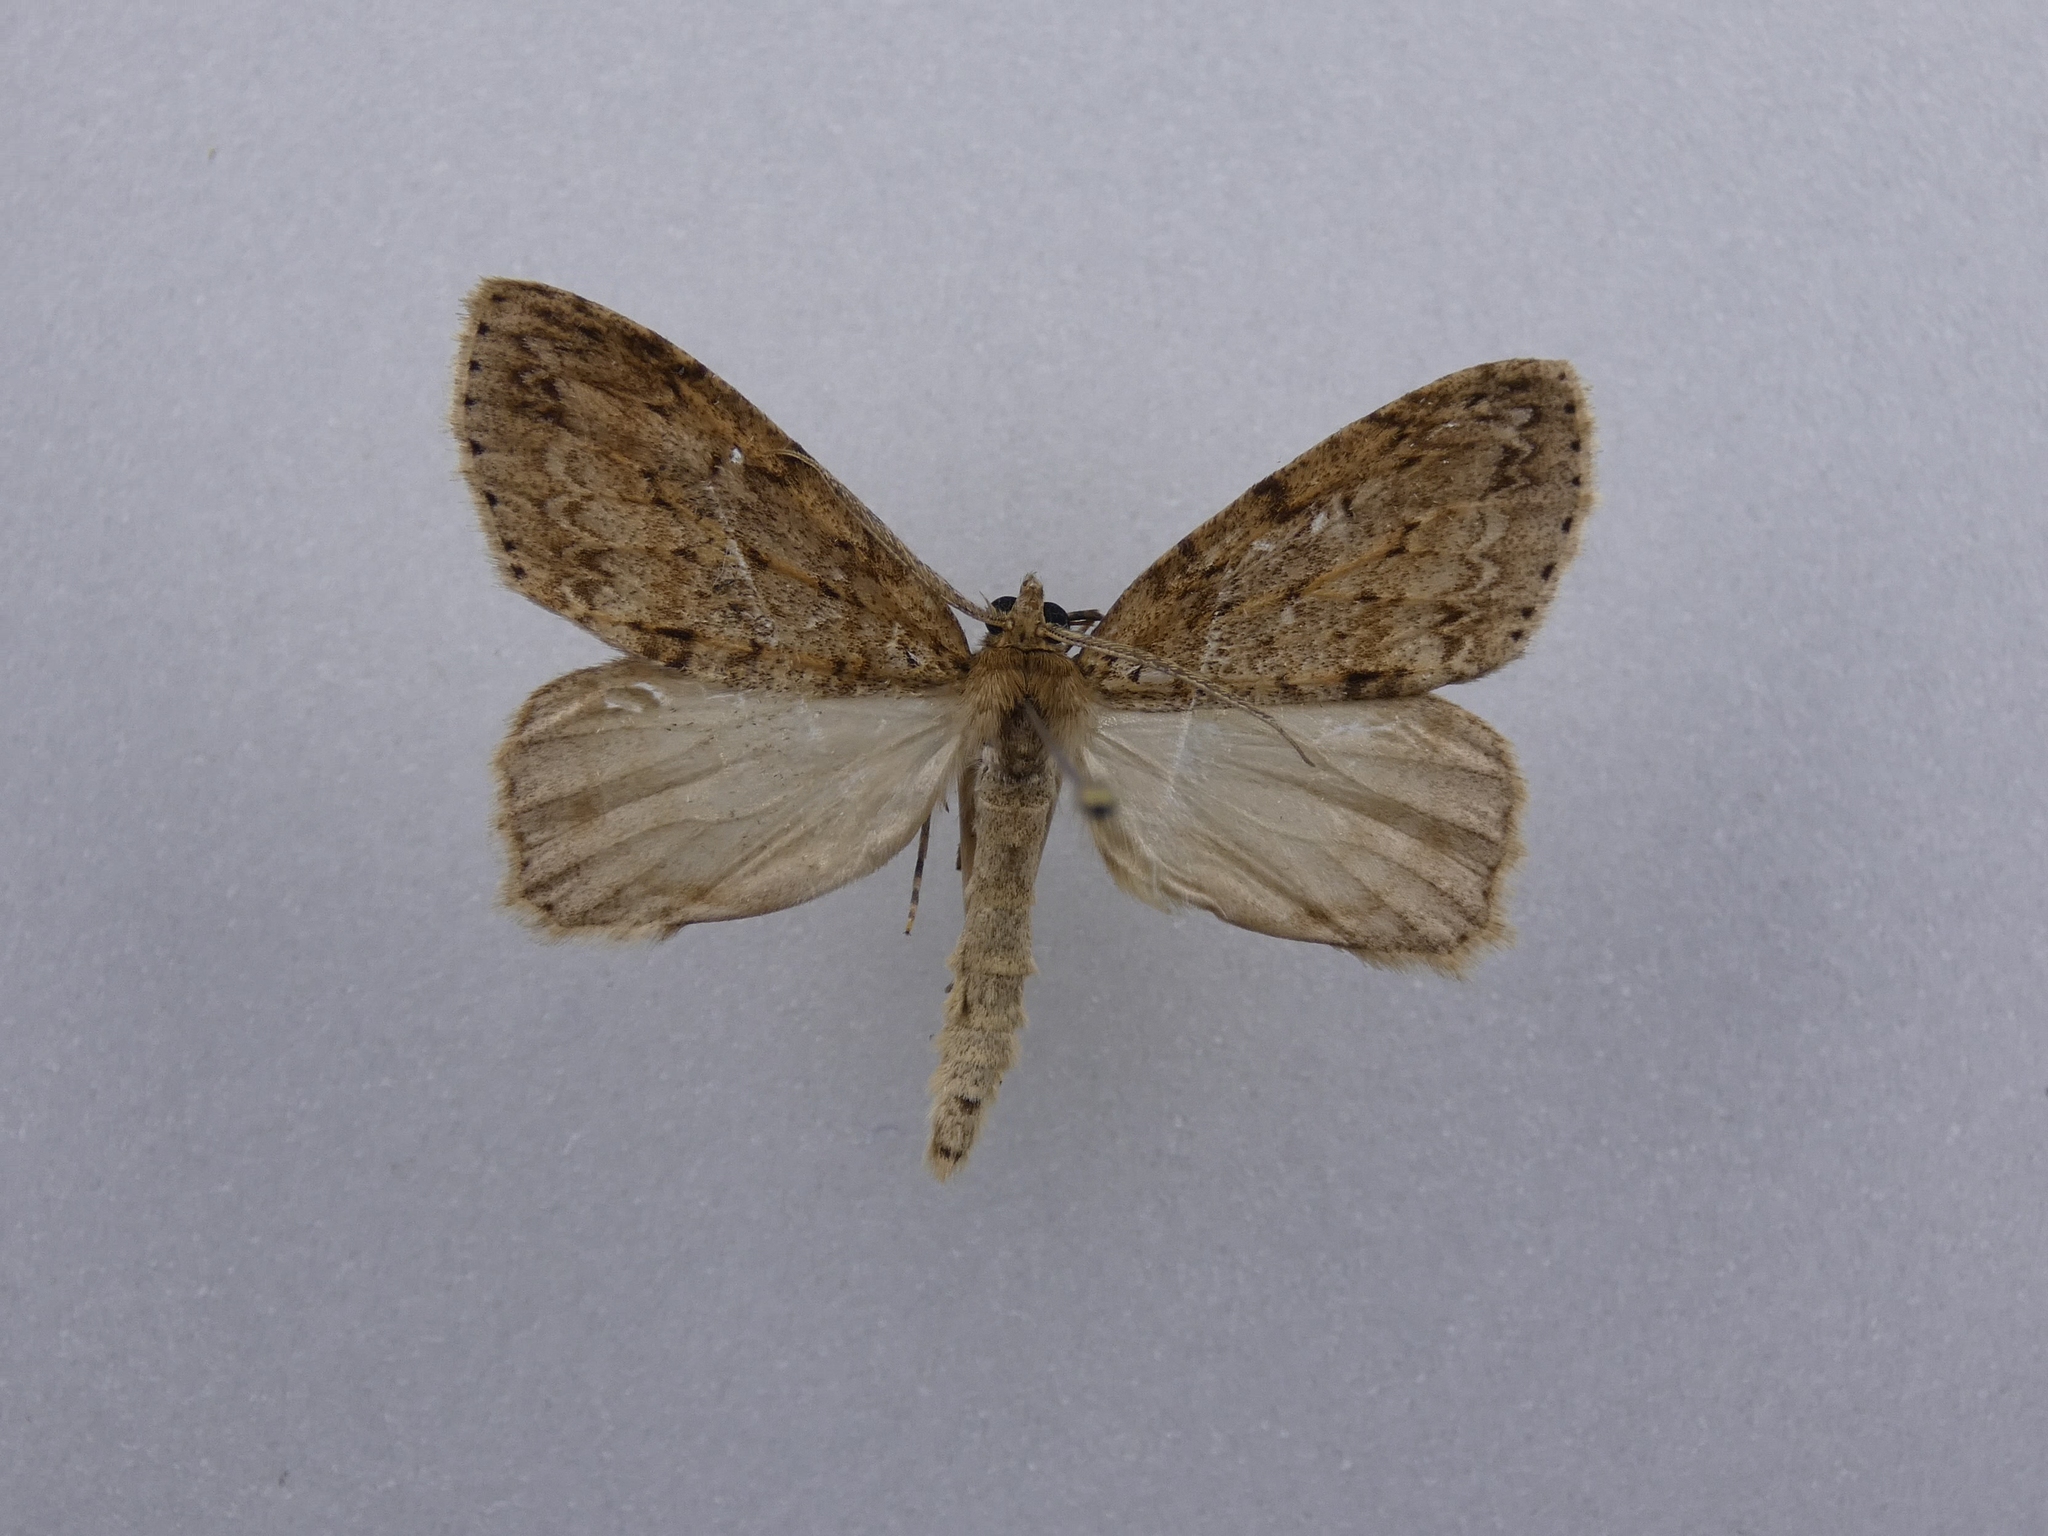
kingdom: Animalia
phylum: Arthropoda
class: Insecta
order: Lepidoptera
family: Geometridae
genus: Pseudocoremia
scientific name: Pseudocoremia fenerata
